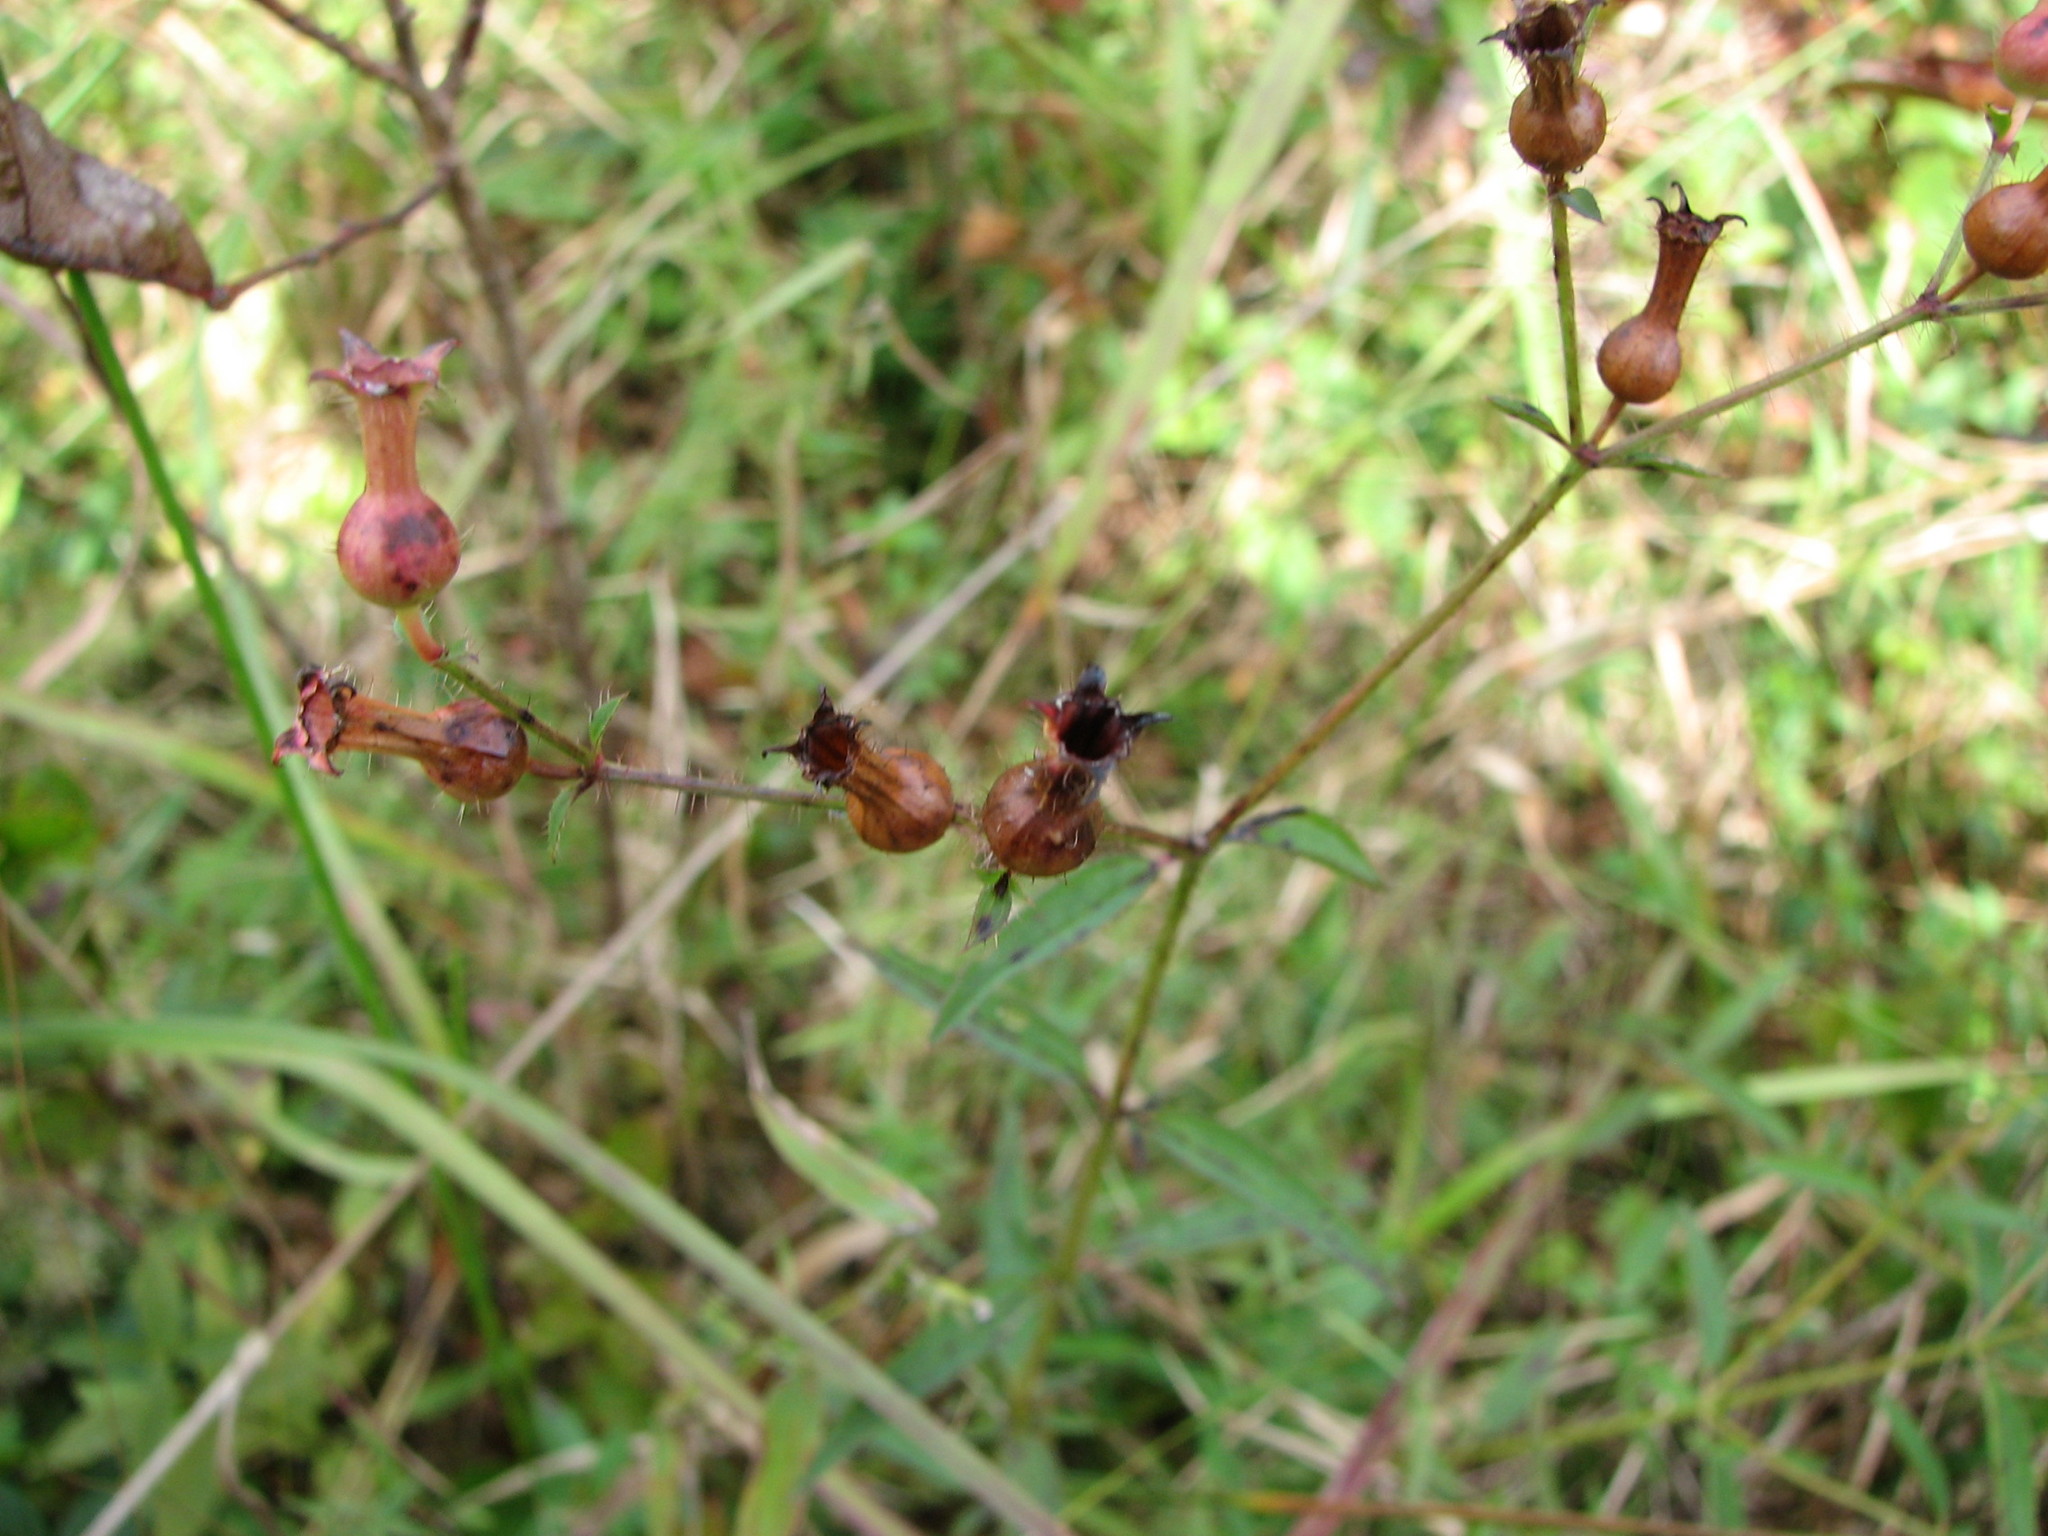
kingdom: Plantae
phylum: Tracheophyta
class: Magnoliopsida
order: Myrtales
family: Melastomataceae
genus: Rhexia
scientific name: Rhexia mariana
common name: Dull meadow-pitcher
